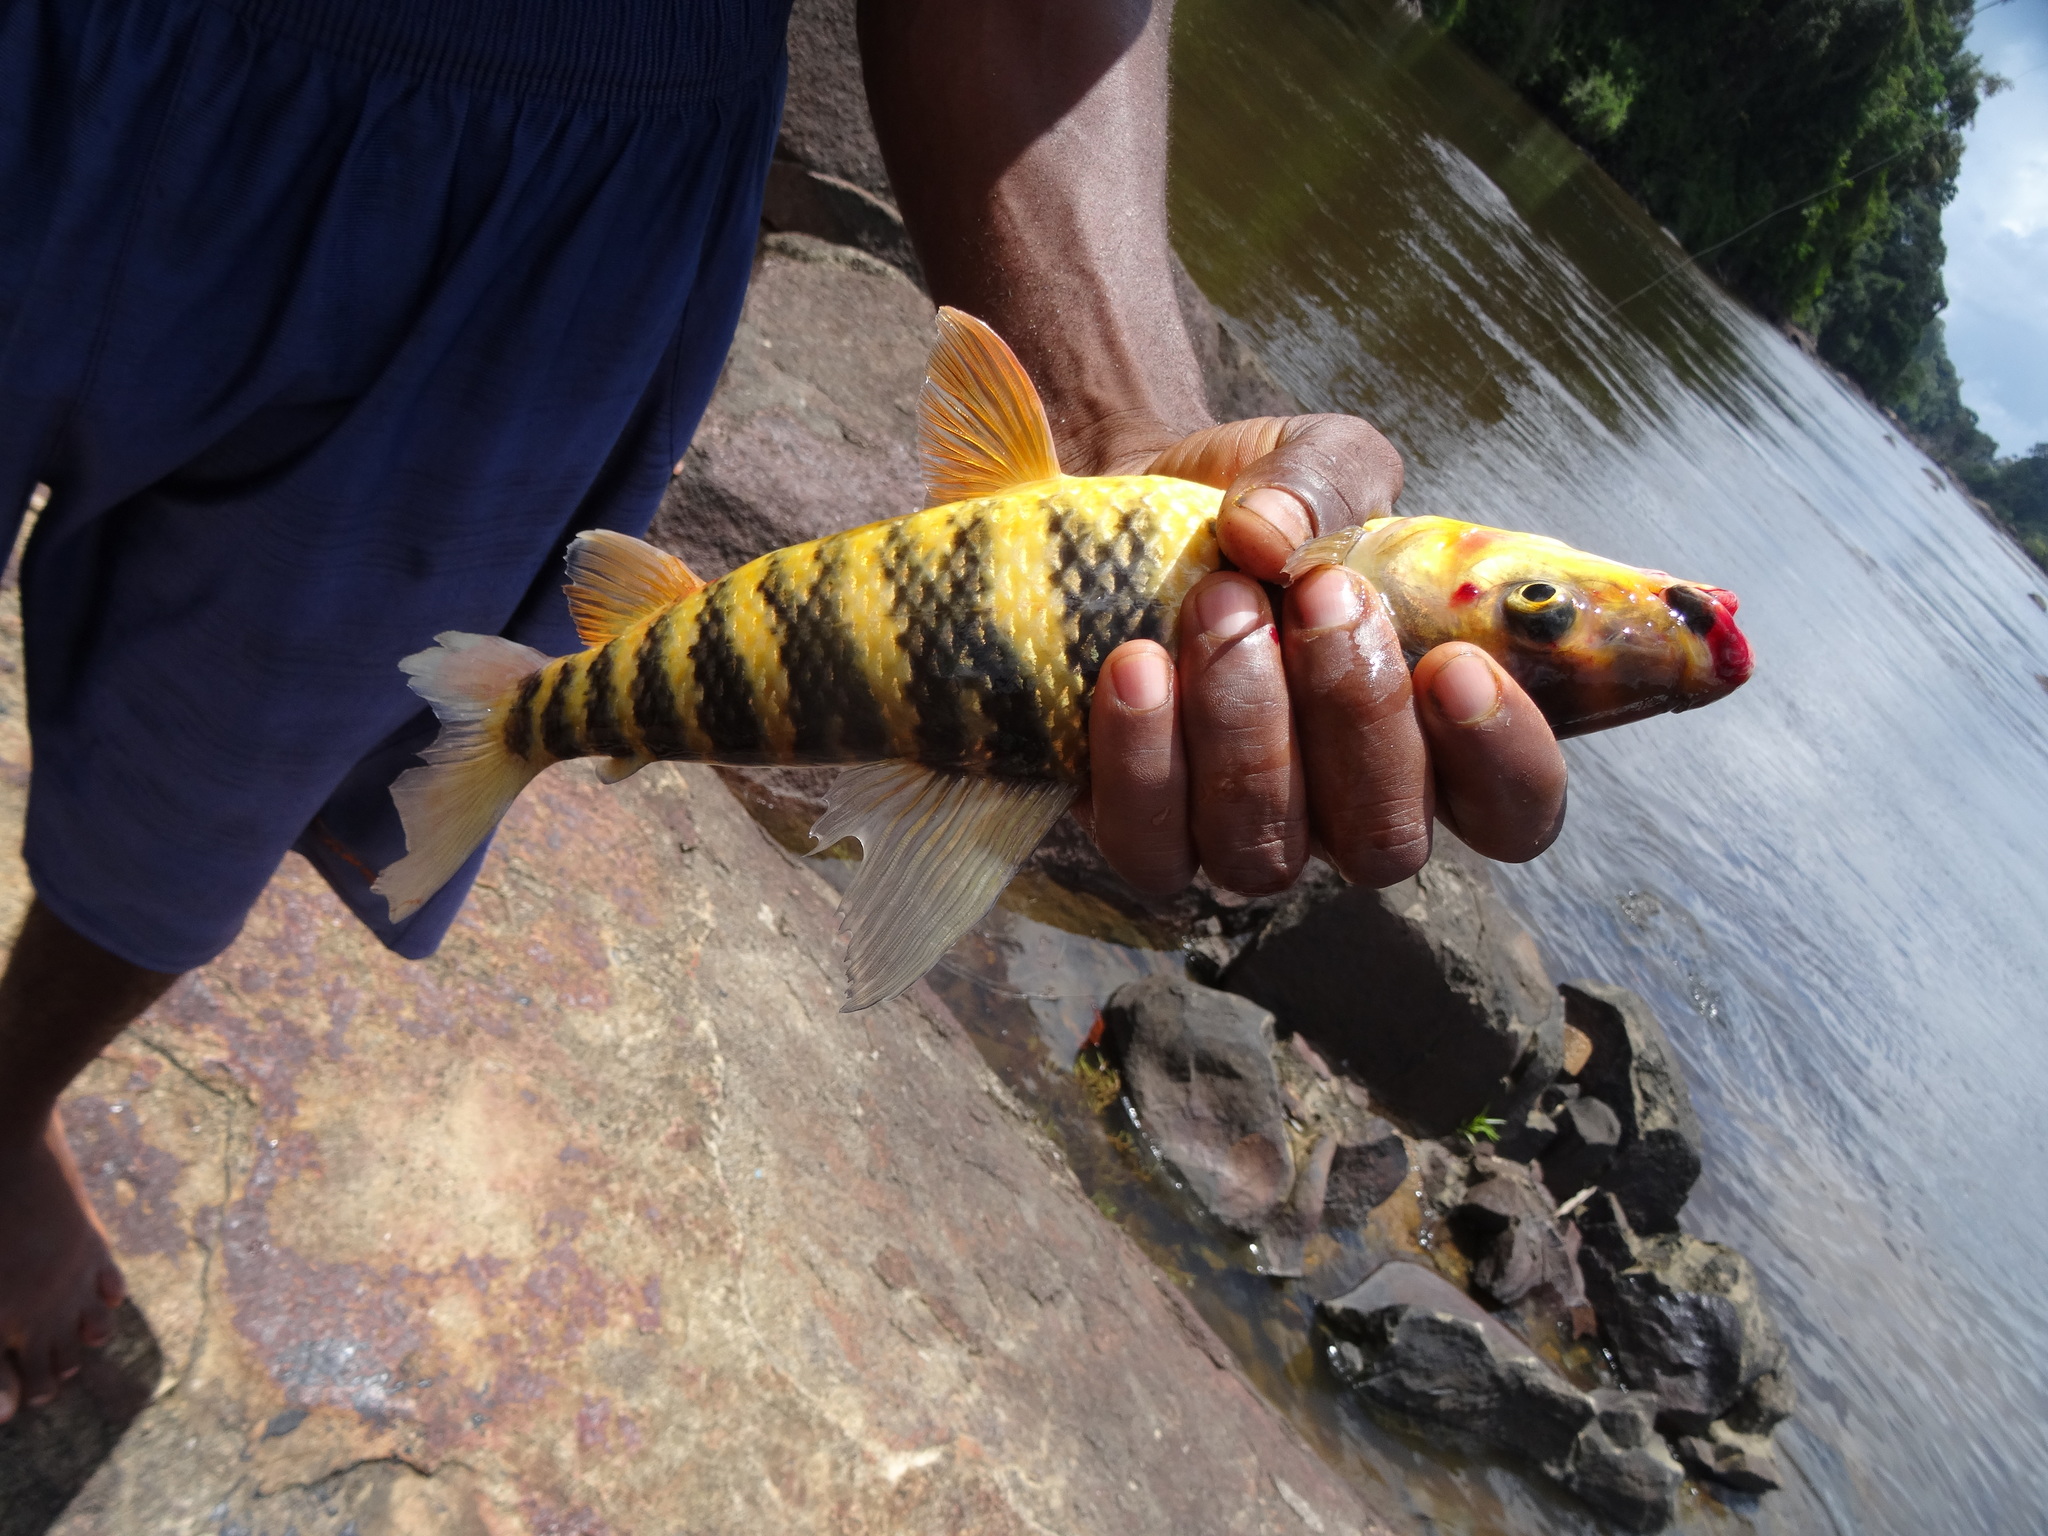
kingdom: Animalia
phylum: Chordata
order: Characiformes
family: Anostomidae
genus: Leporinus
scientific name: Leporinus fasciatus
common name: Banded leporinus
